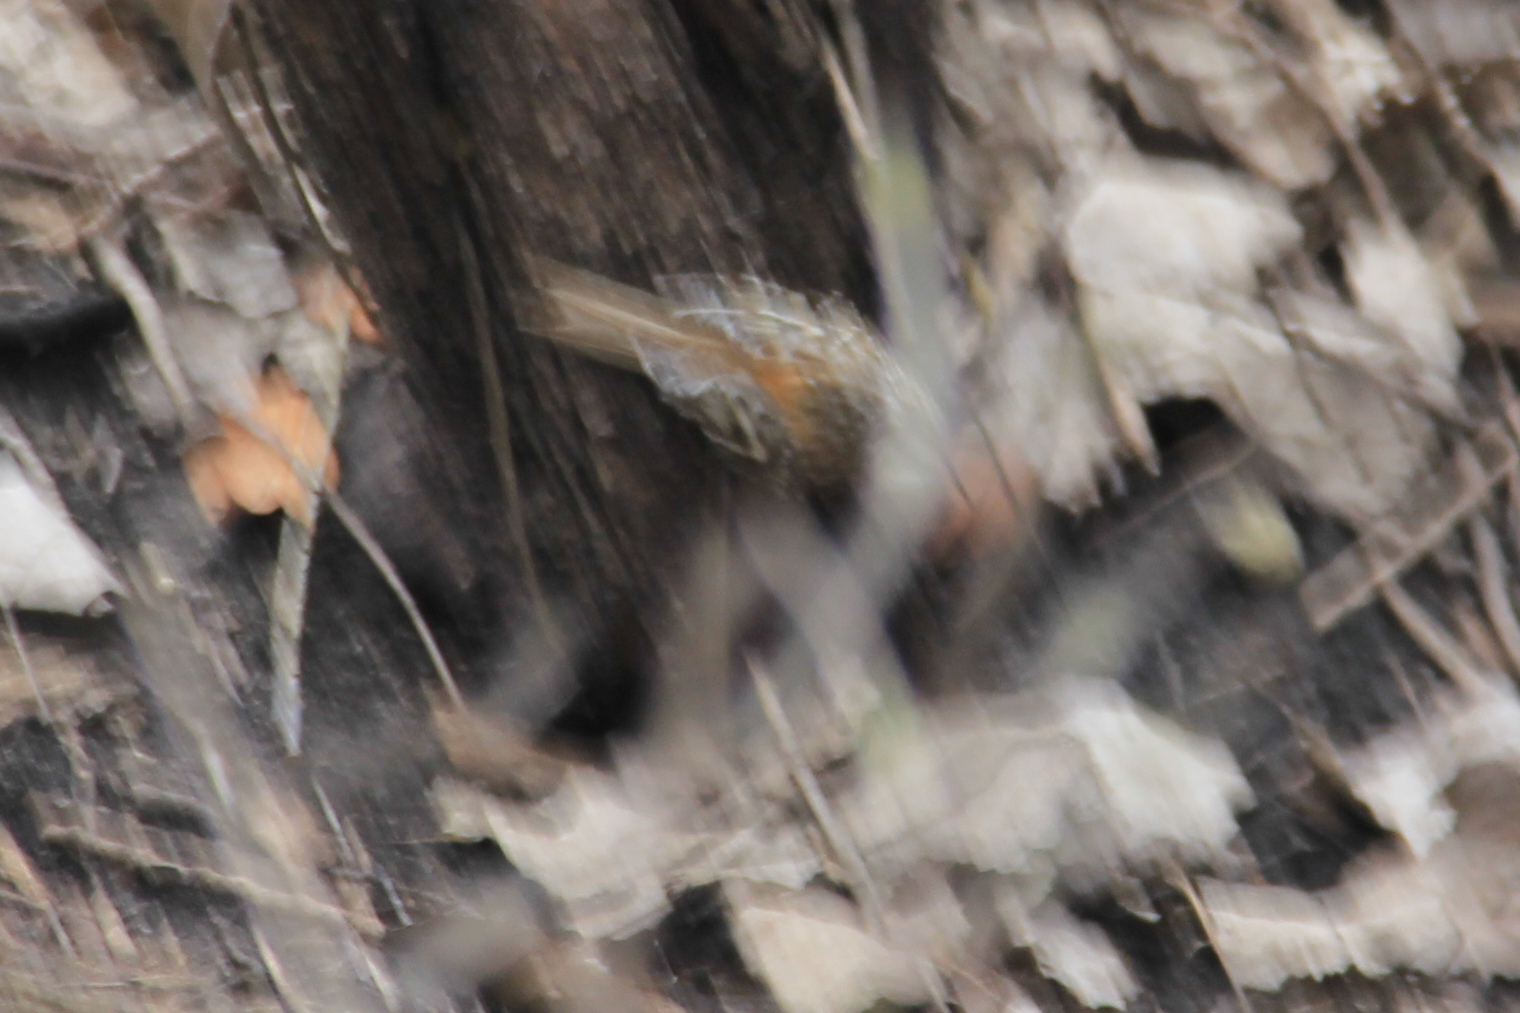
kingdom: Animalia
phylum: Chordata
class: Aves
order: Passeriformes
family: Certhiidae
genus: Certhia
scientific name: Certhia americana
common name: Brown creeper
